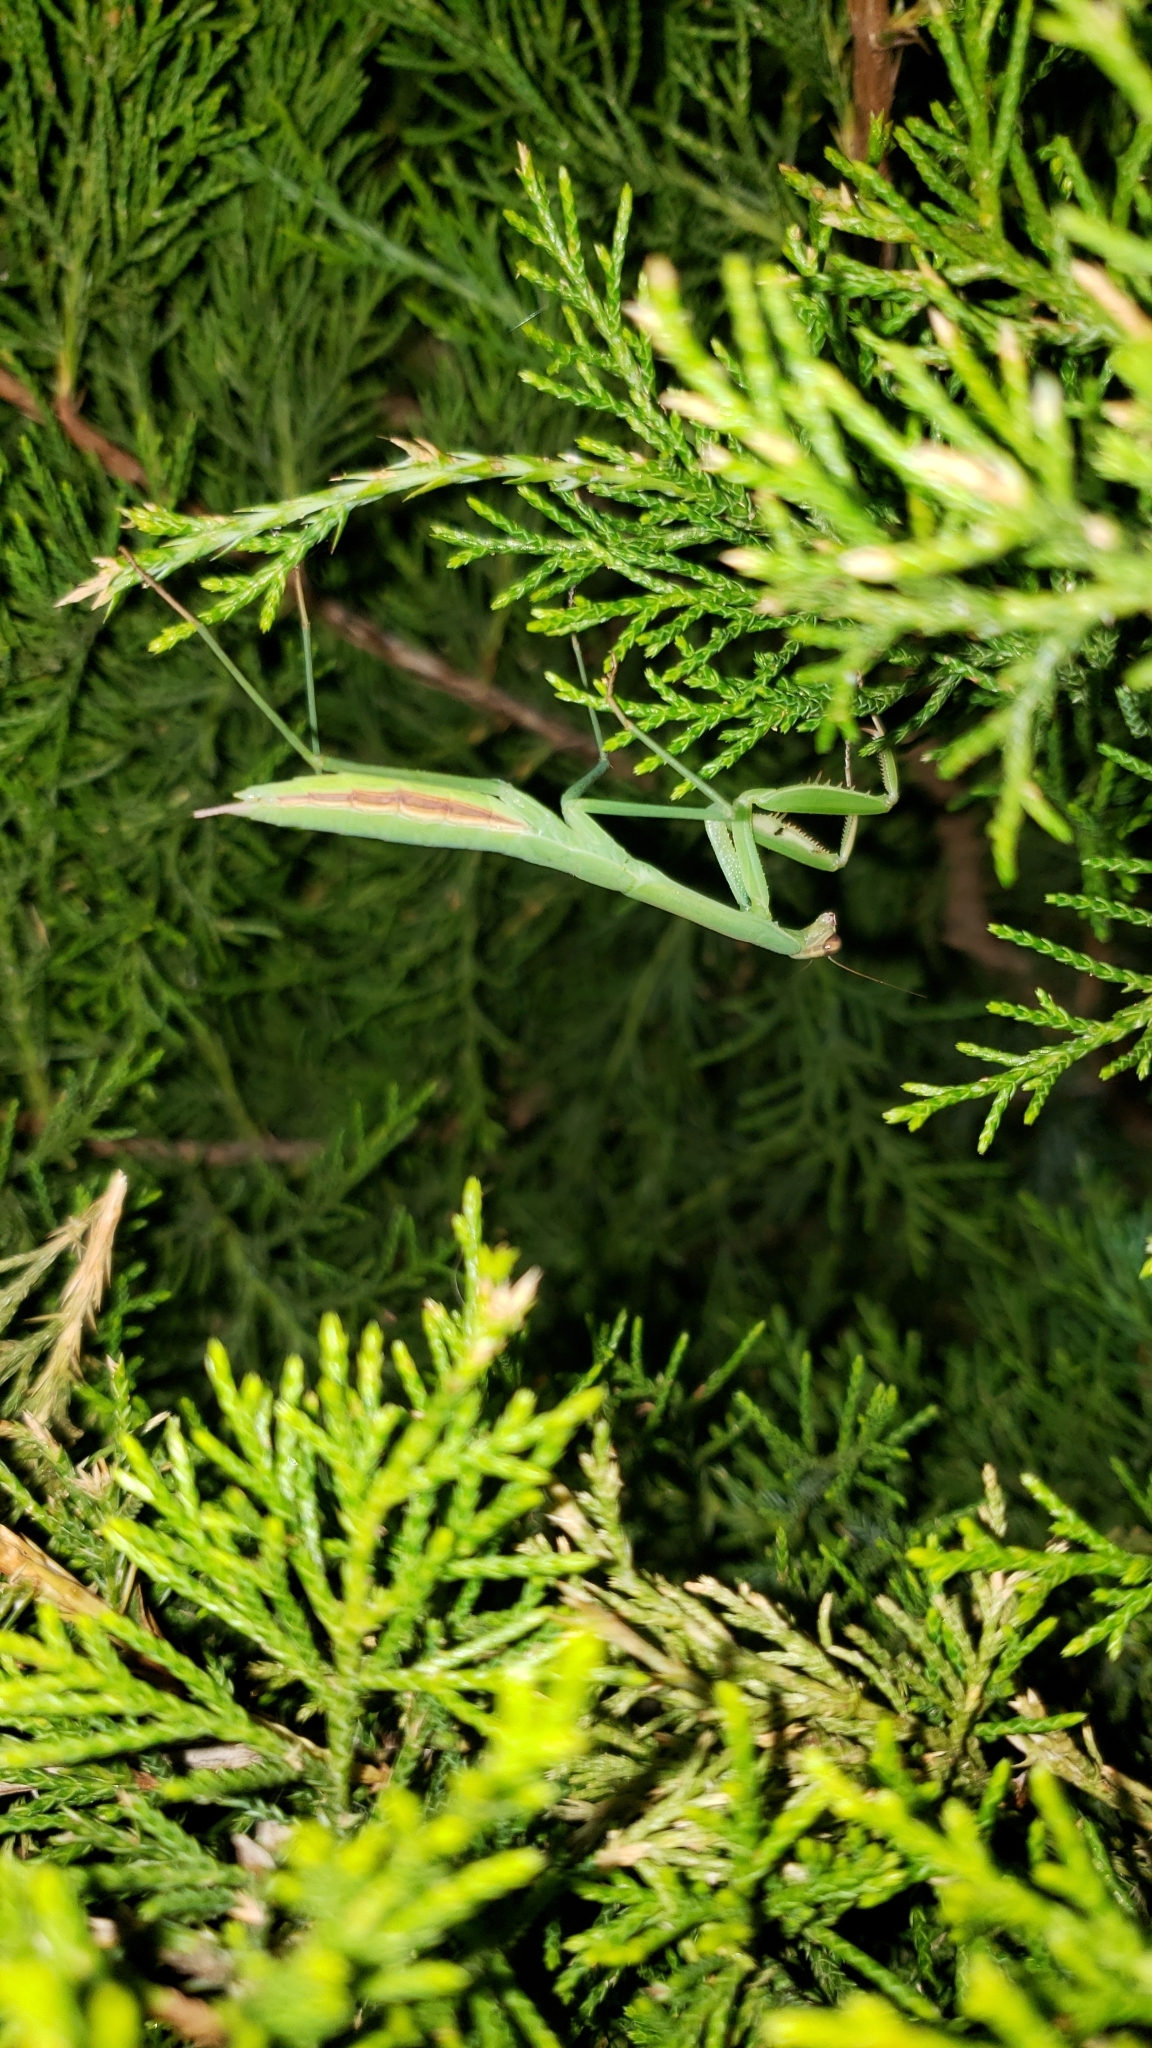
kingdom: Animalia
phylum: Arthropoda
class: Insecta
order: Mantodea
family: Mantidae
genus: Tenodera
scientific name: Tenodera sinensis
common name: Chinese mantis
